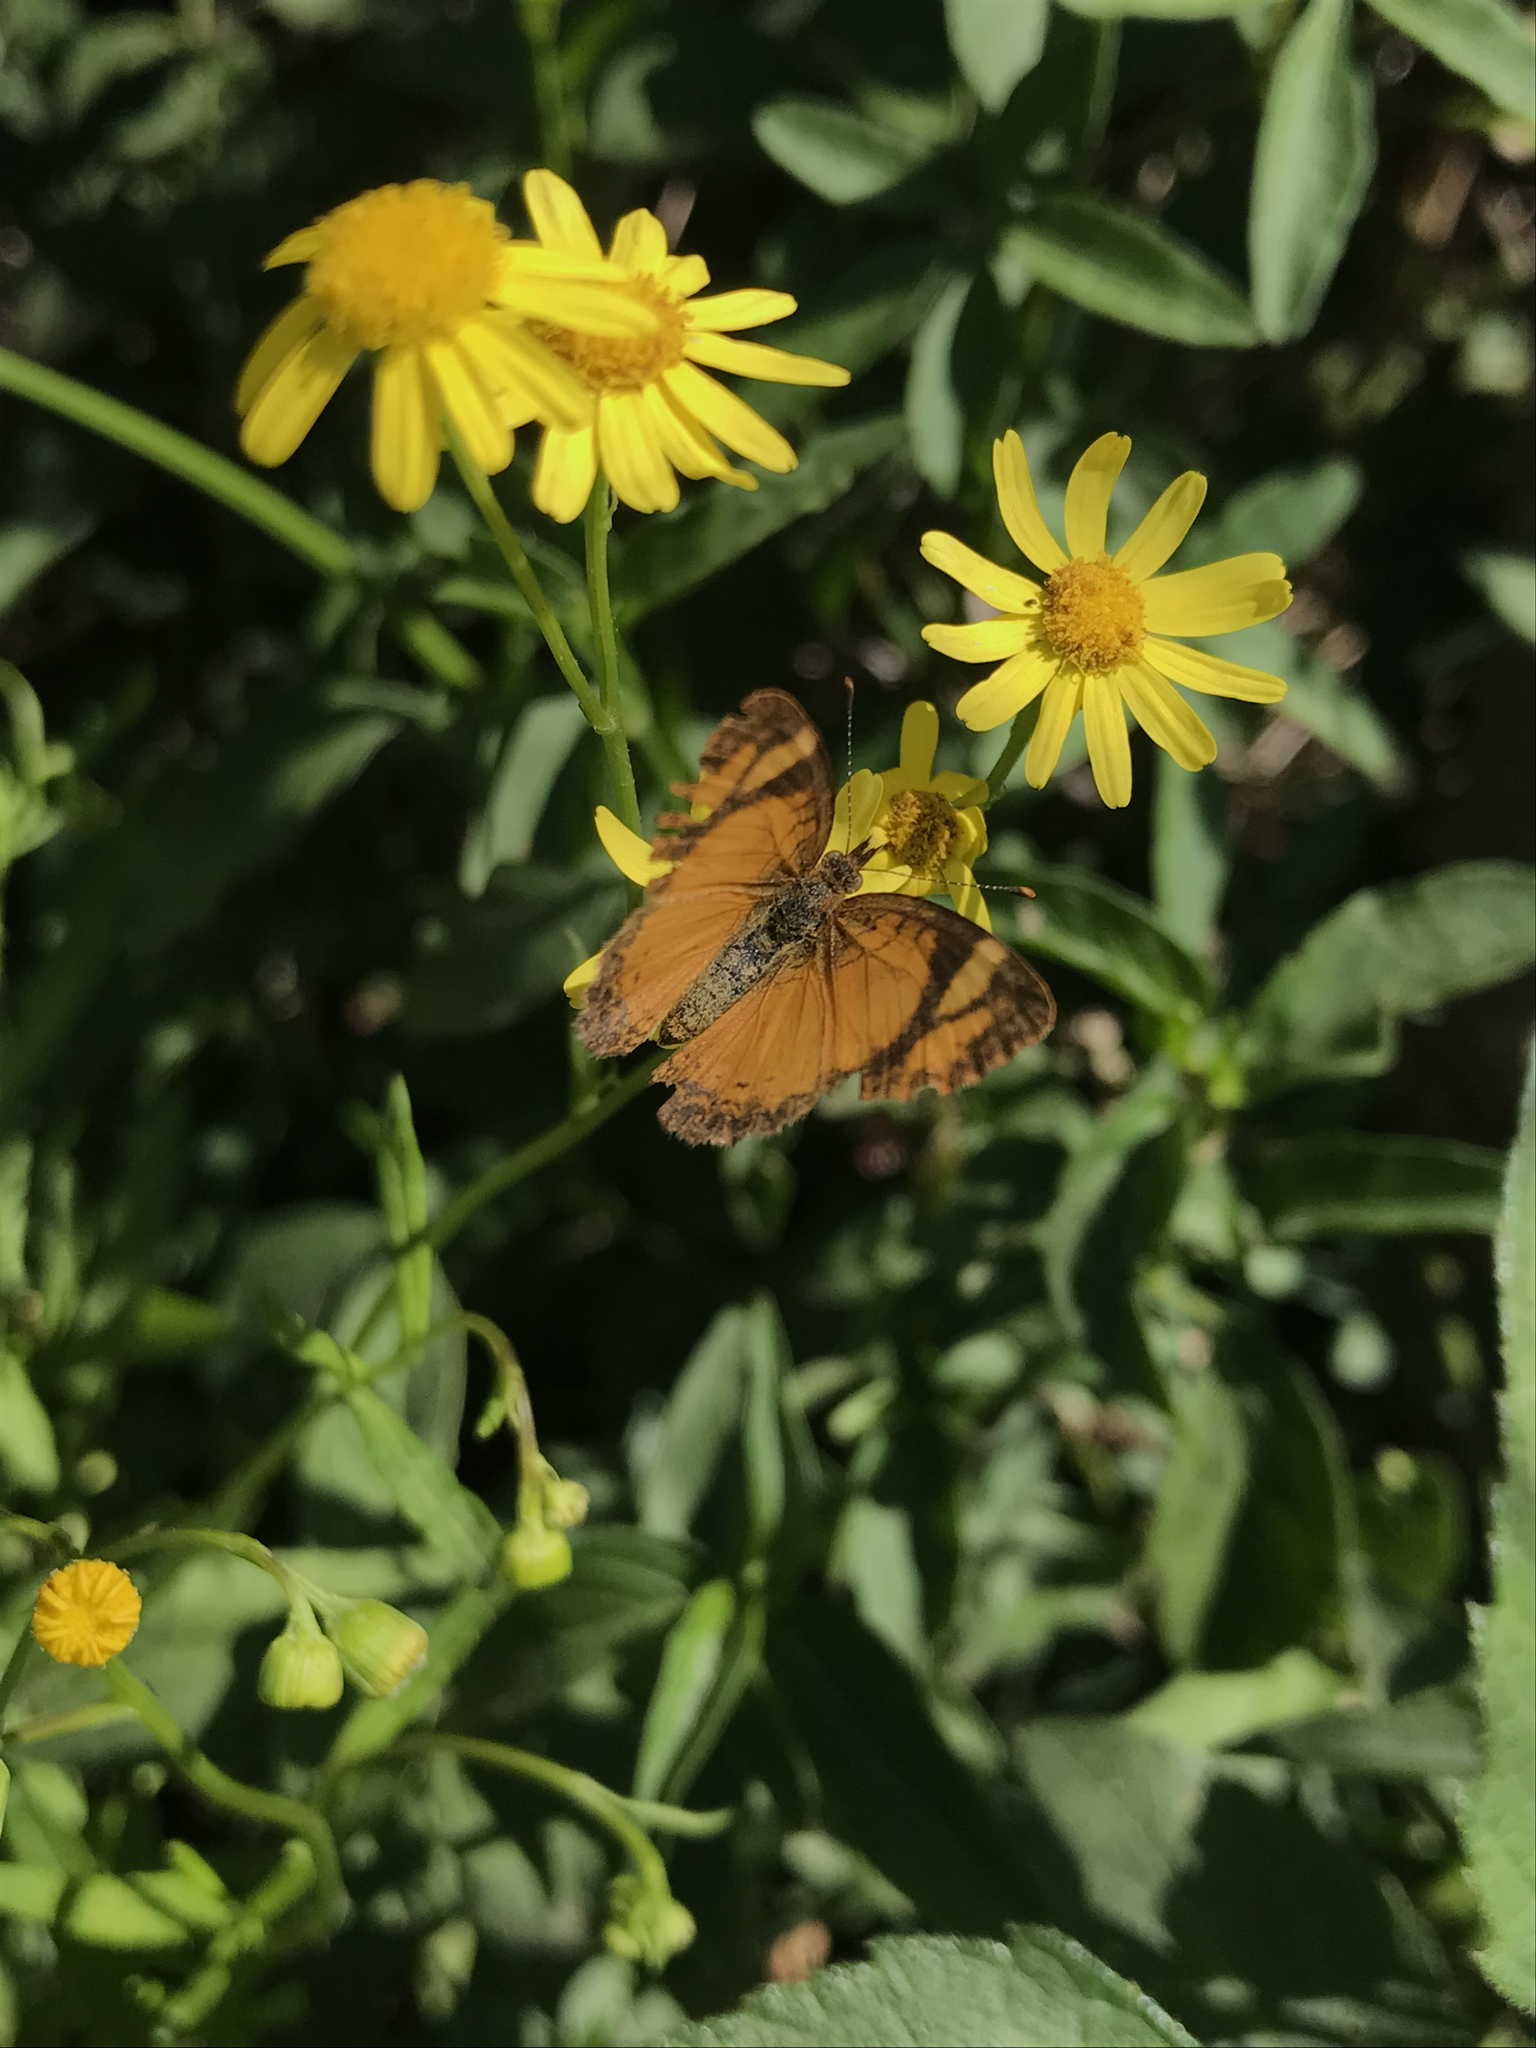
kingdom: Animalia
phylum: Arthropoda
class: Insecta
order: Lepidoptera
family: Nymphalidae
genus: Tegosa
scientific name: Tegosa claudina
